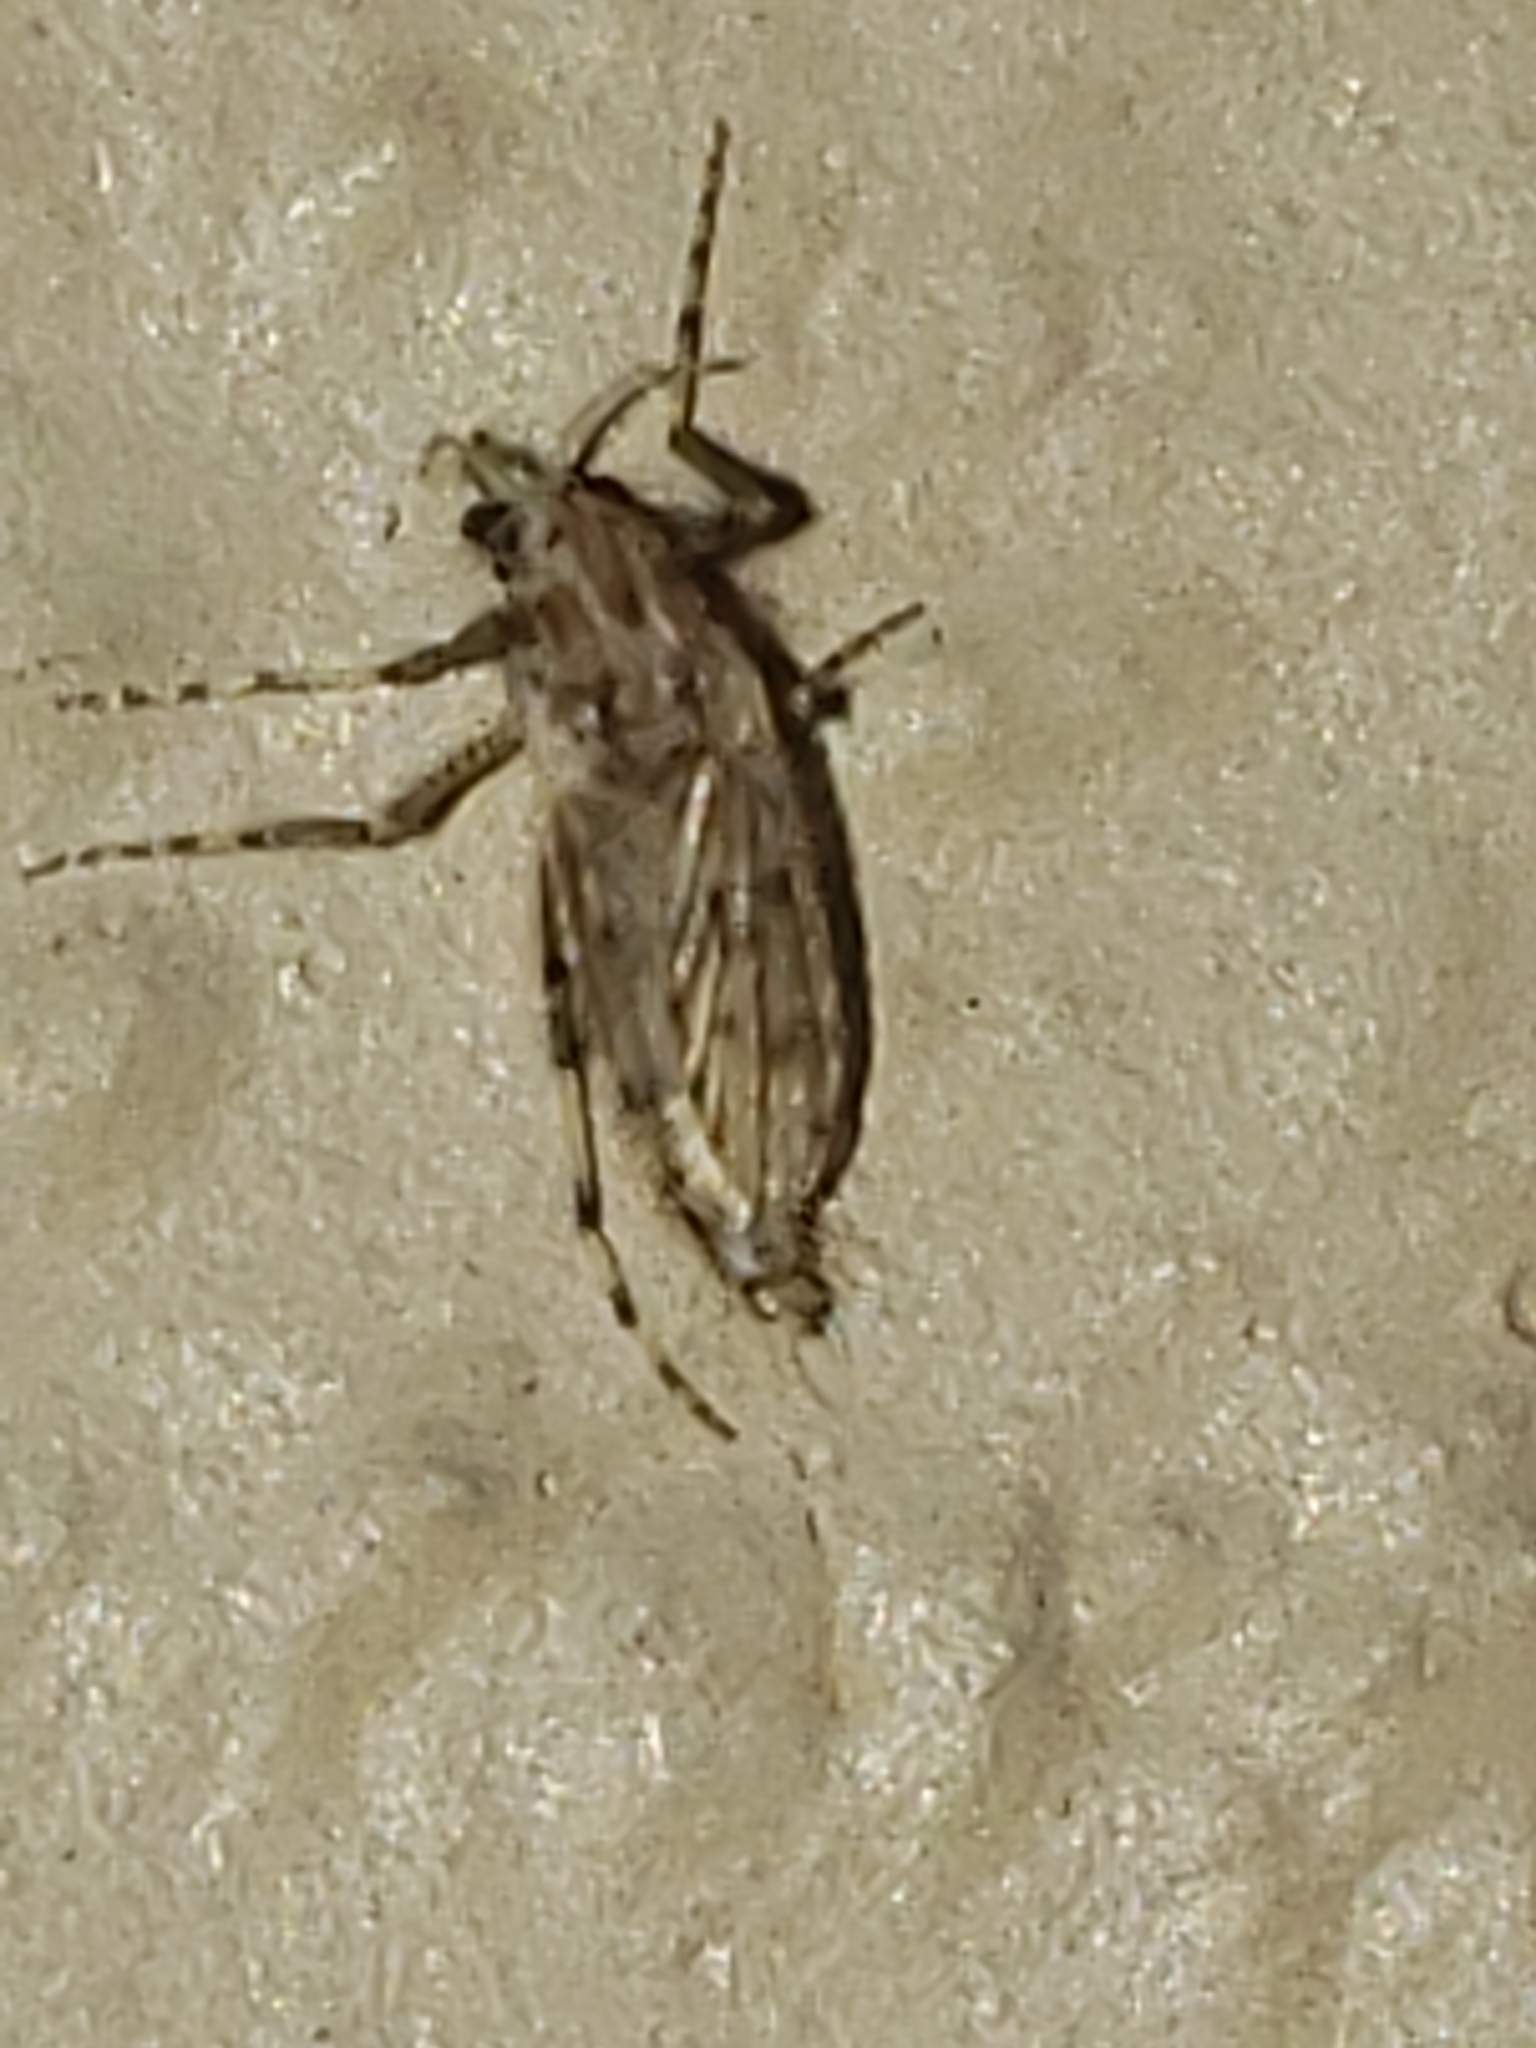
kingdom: Animalia
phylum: Arthropoda
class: Insecta
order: Diptera
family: Chaoboridae
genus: Chaoborus
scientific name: Chaoborus punctipennis
